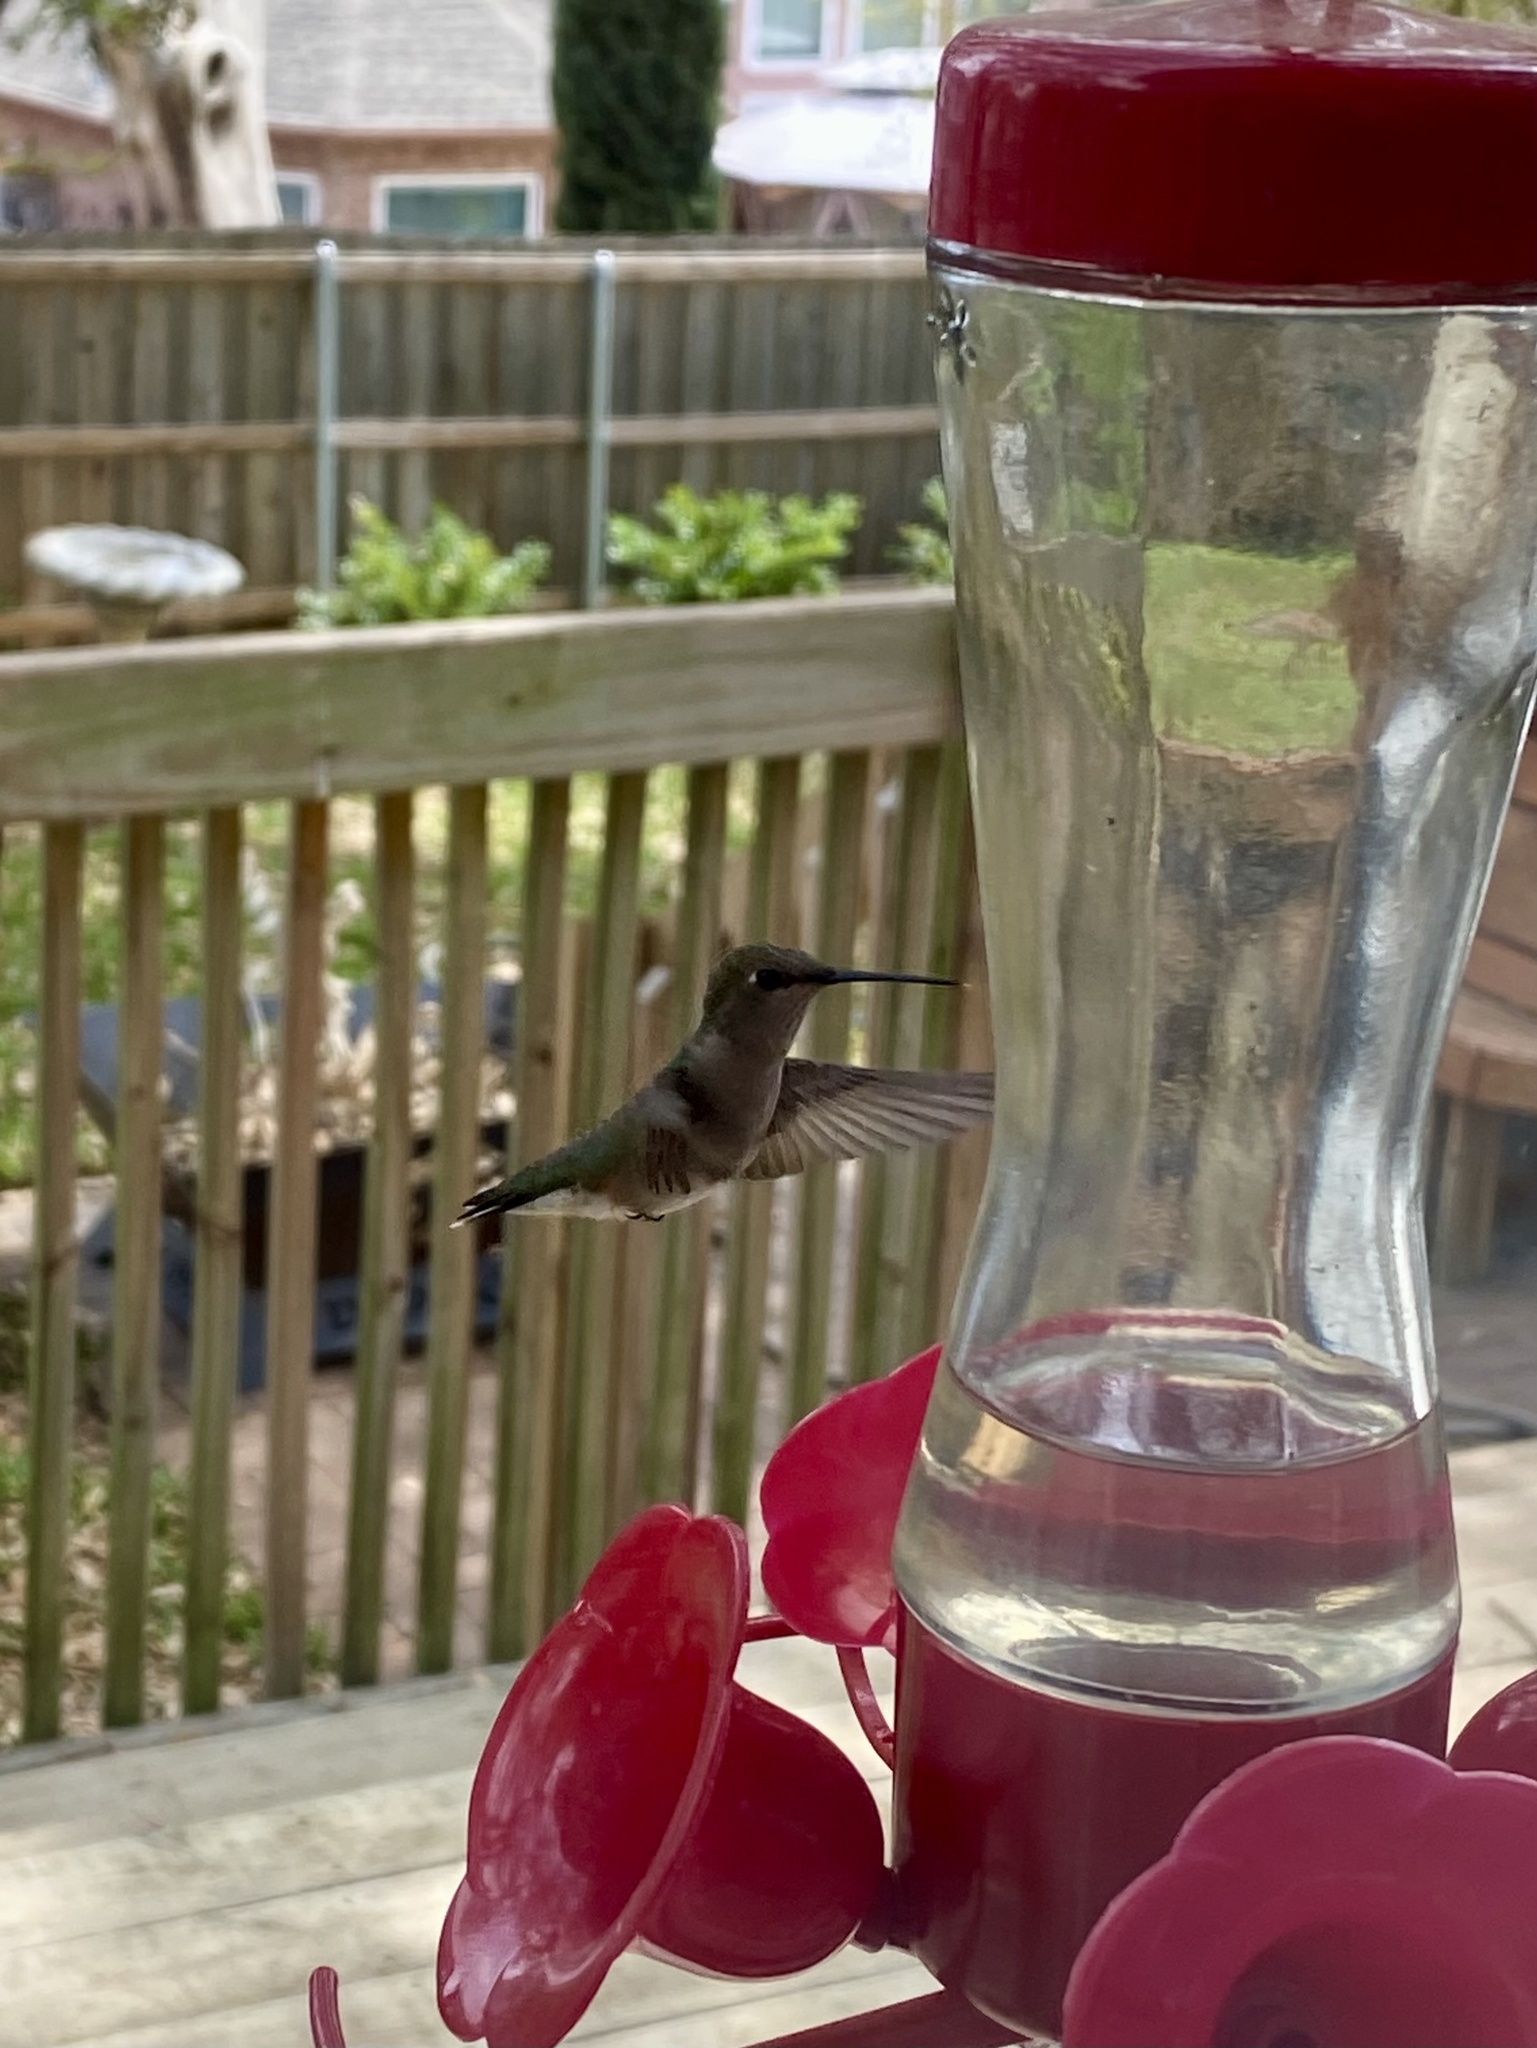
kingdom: Animalia
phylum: Chordata
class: Aves
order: Apodiformes
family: Trochilidae
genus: Archilochus
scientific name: Archilochus alexandri
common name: Black-chinned hummingbird
